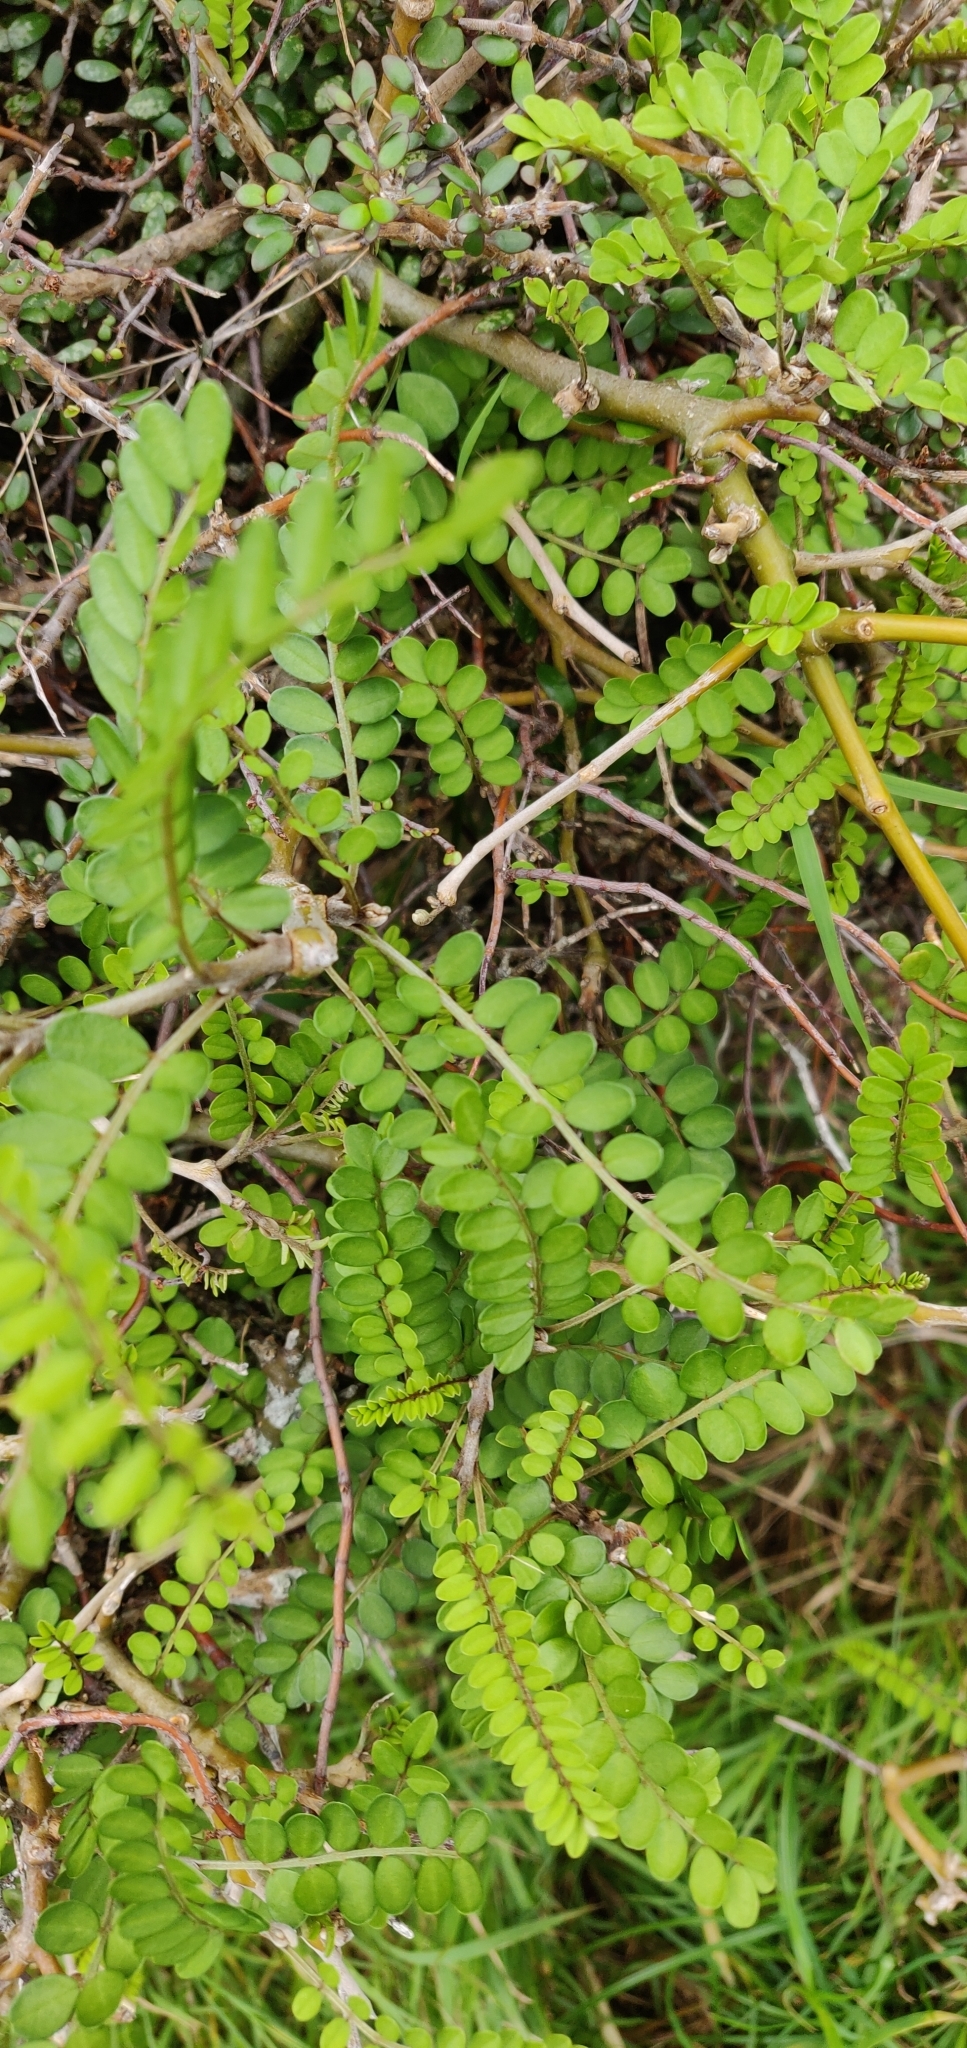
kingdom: Plantae
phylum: Tracheophyta
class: Magnoliopsida
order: Fabales
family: Fabaceae
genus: Sophora
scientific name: Sophora molloyi
